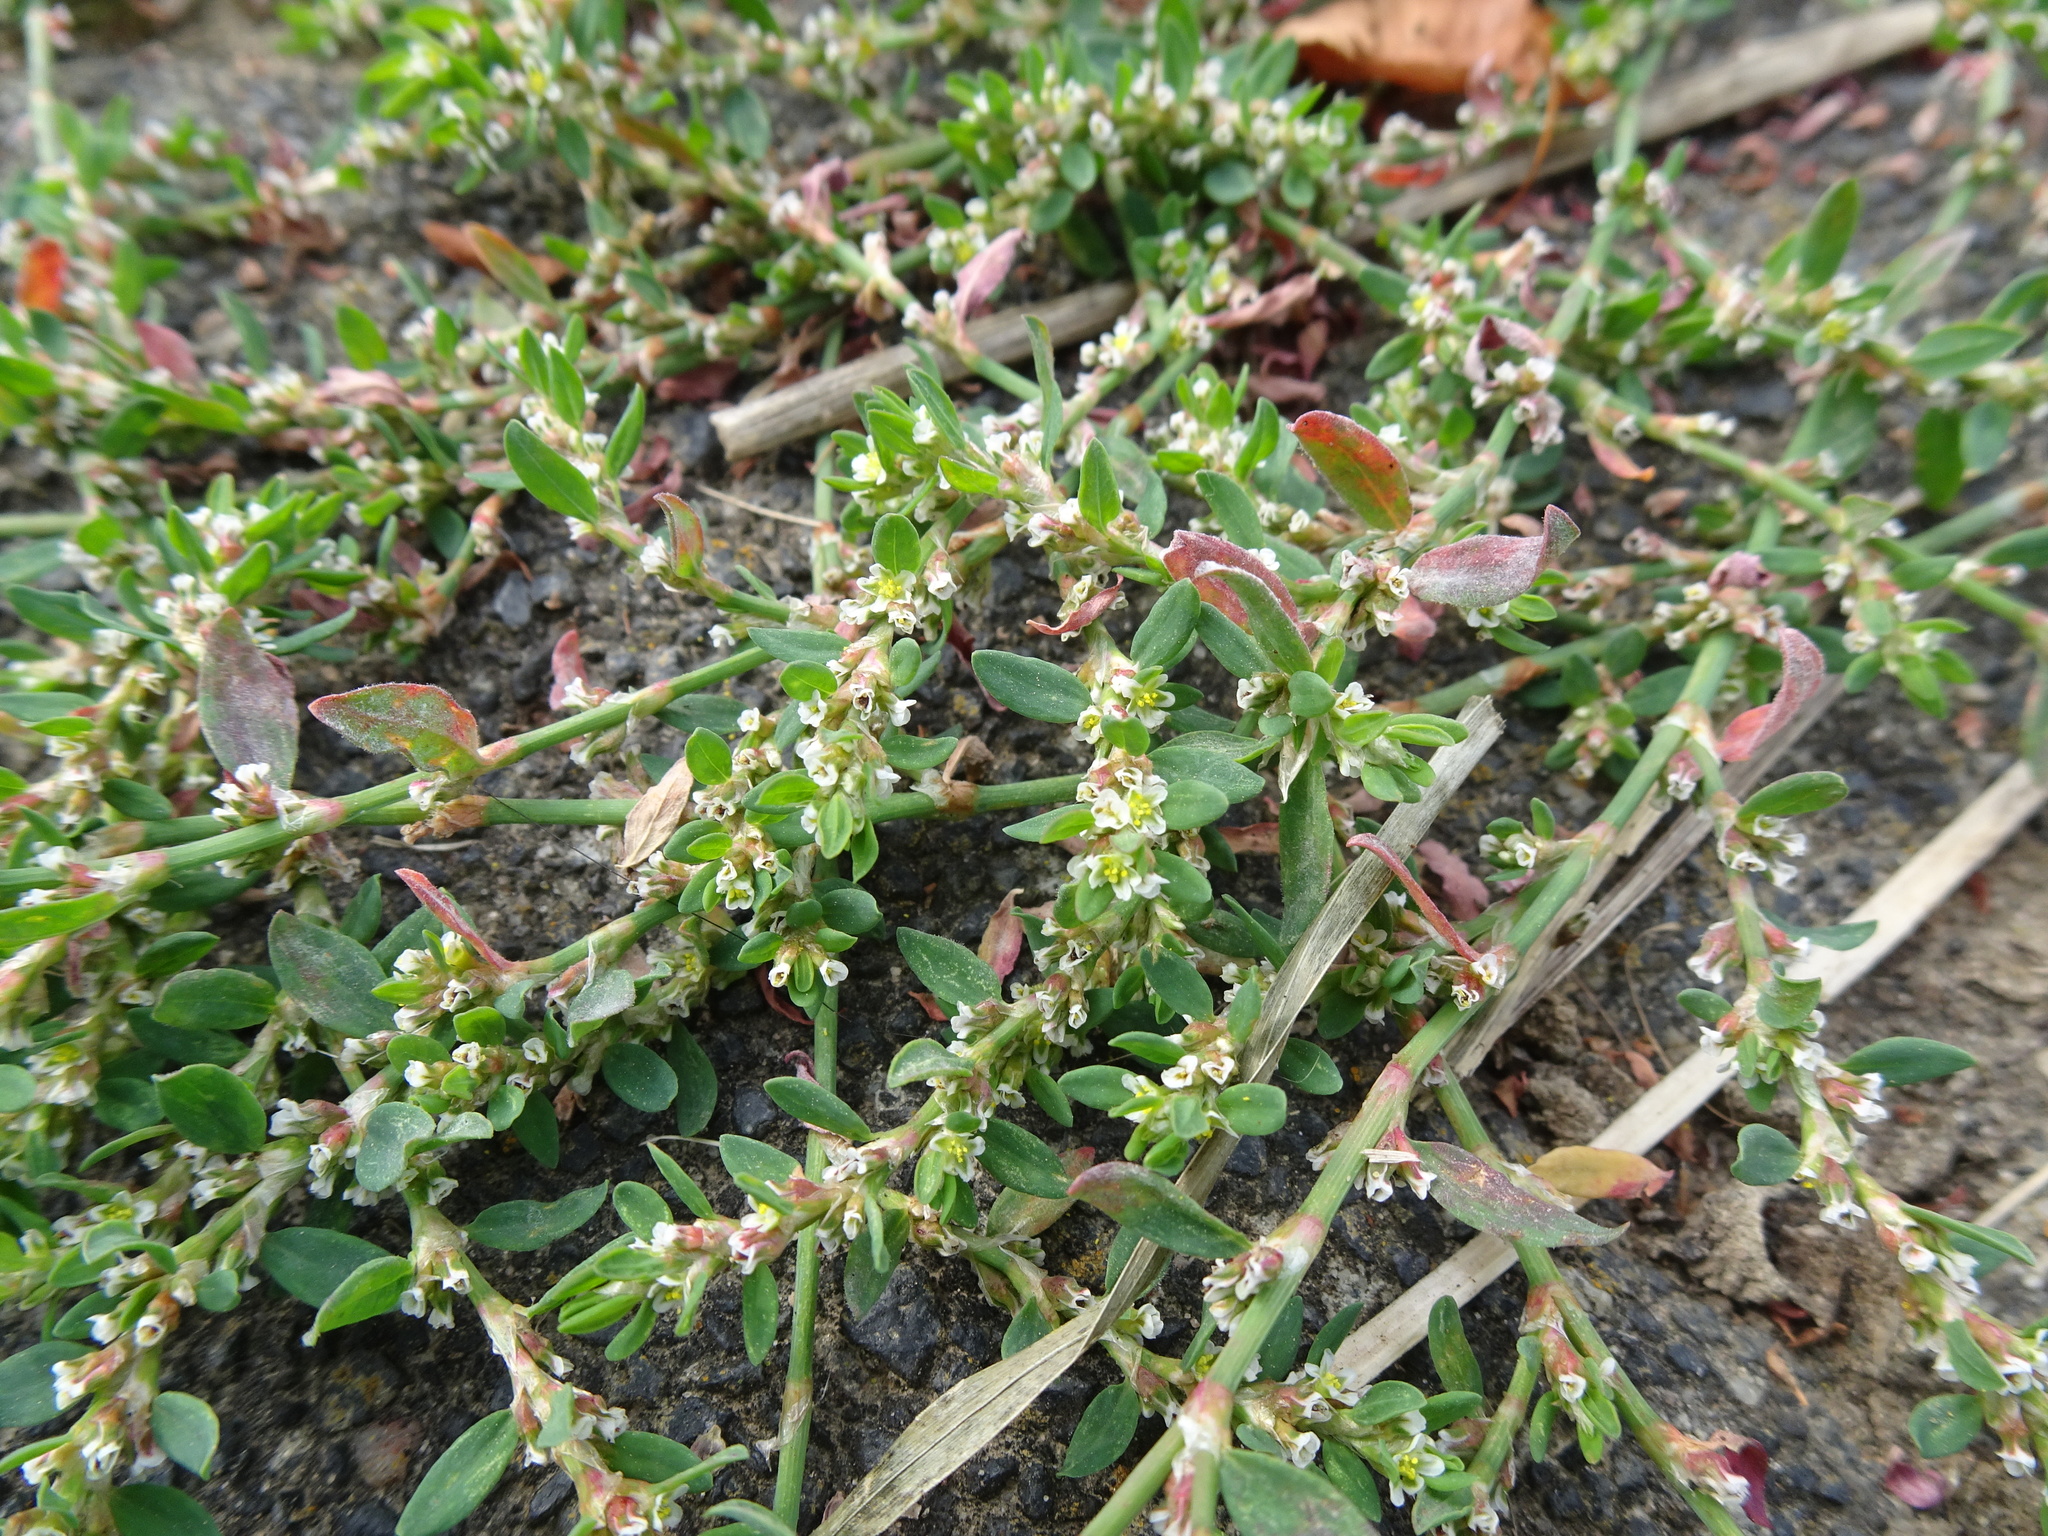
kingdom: Plantae
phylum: Tracheophyta
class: Magnoliopsida
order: Caryophyllales
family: Polygonaceae
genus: Polygonum
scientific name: Polygonum aviculare
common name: Prostrate knotweed
